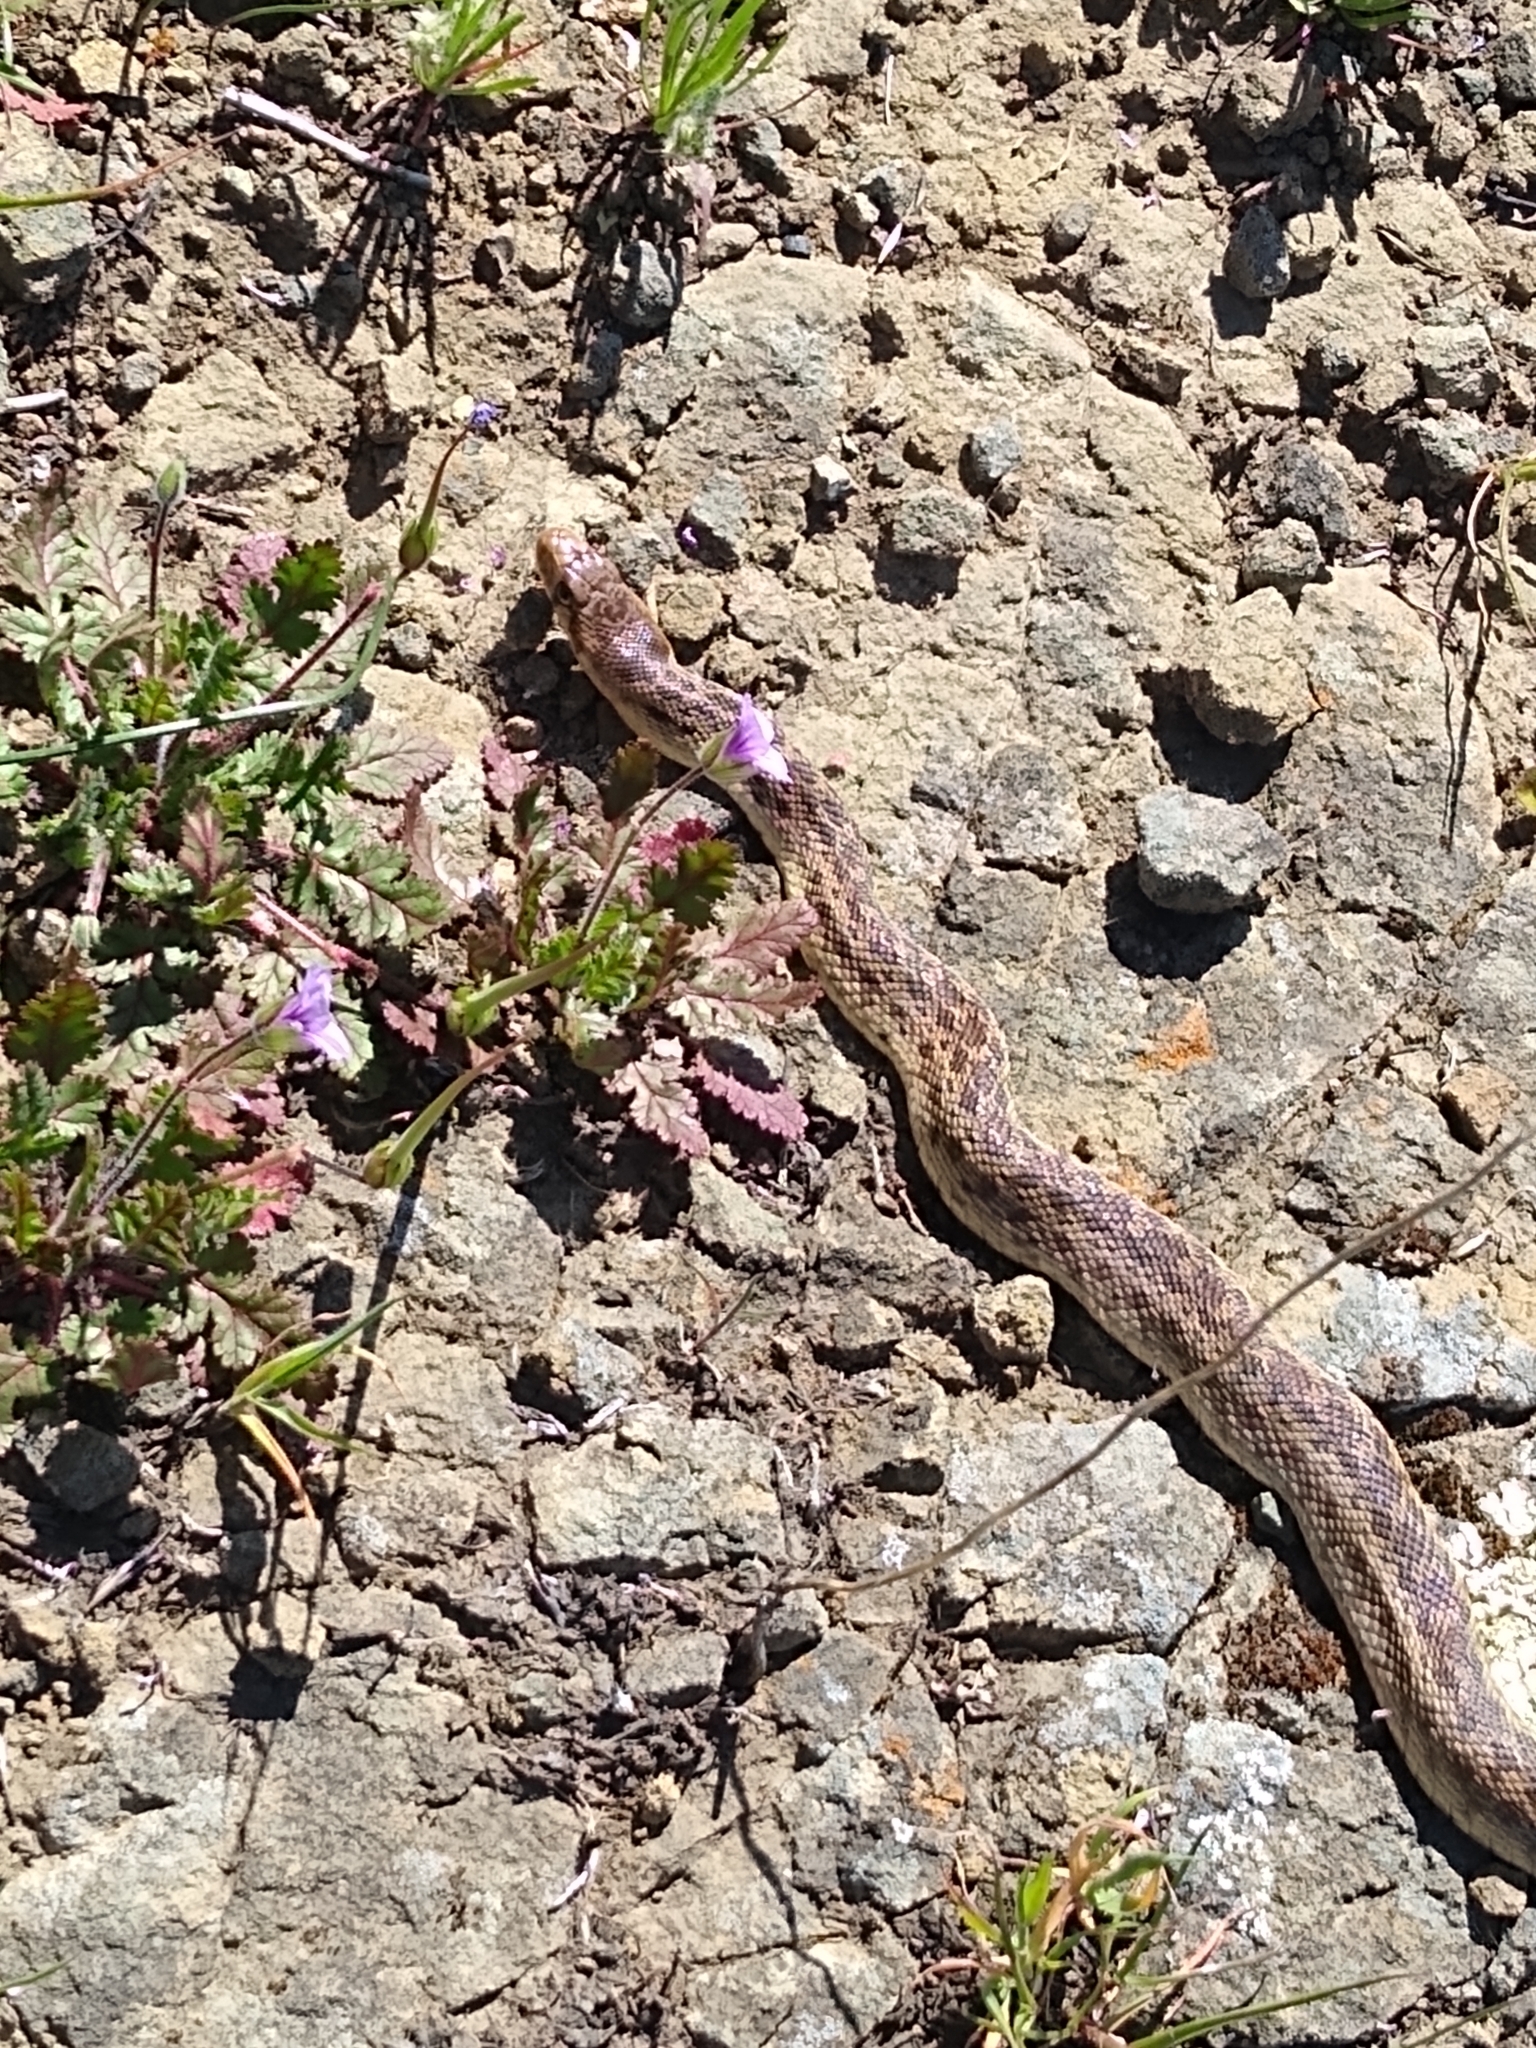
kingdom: Animalia
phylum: Chordata
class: Squamata
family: Colubridae
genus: Pituophis
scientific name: Pituophis catenifer
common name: Gopher snake
